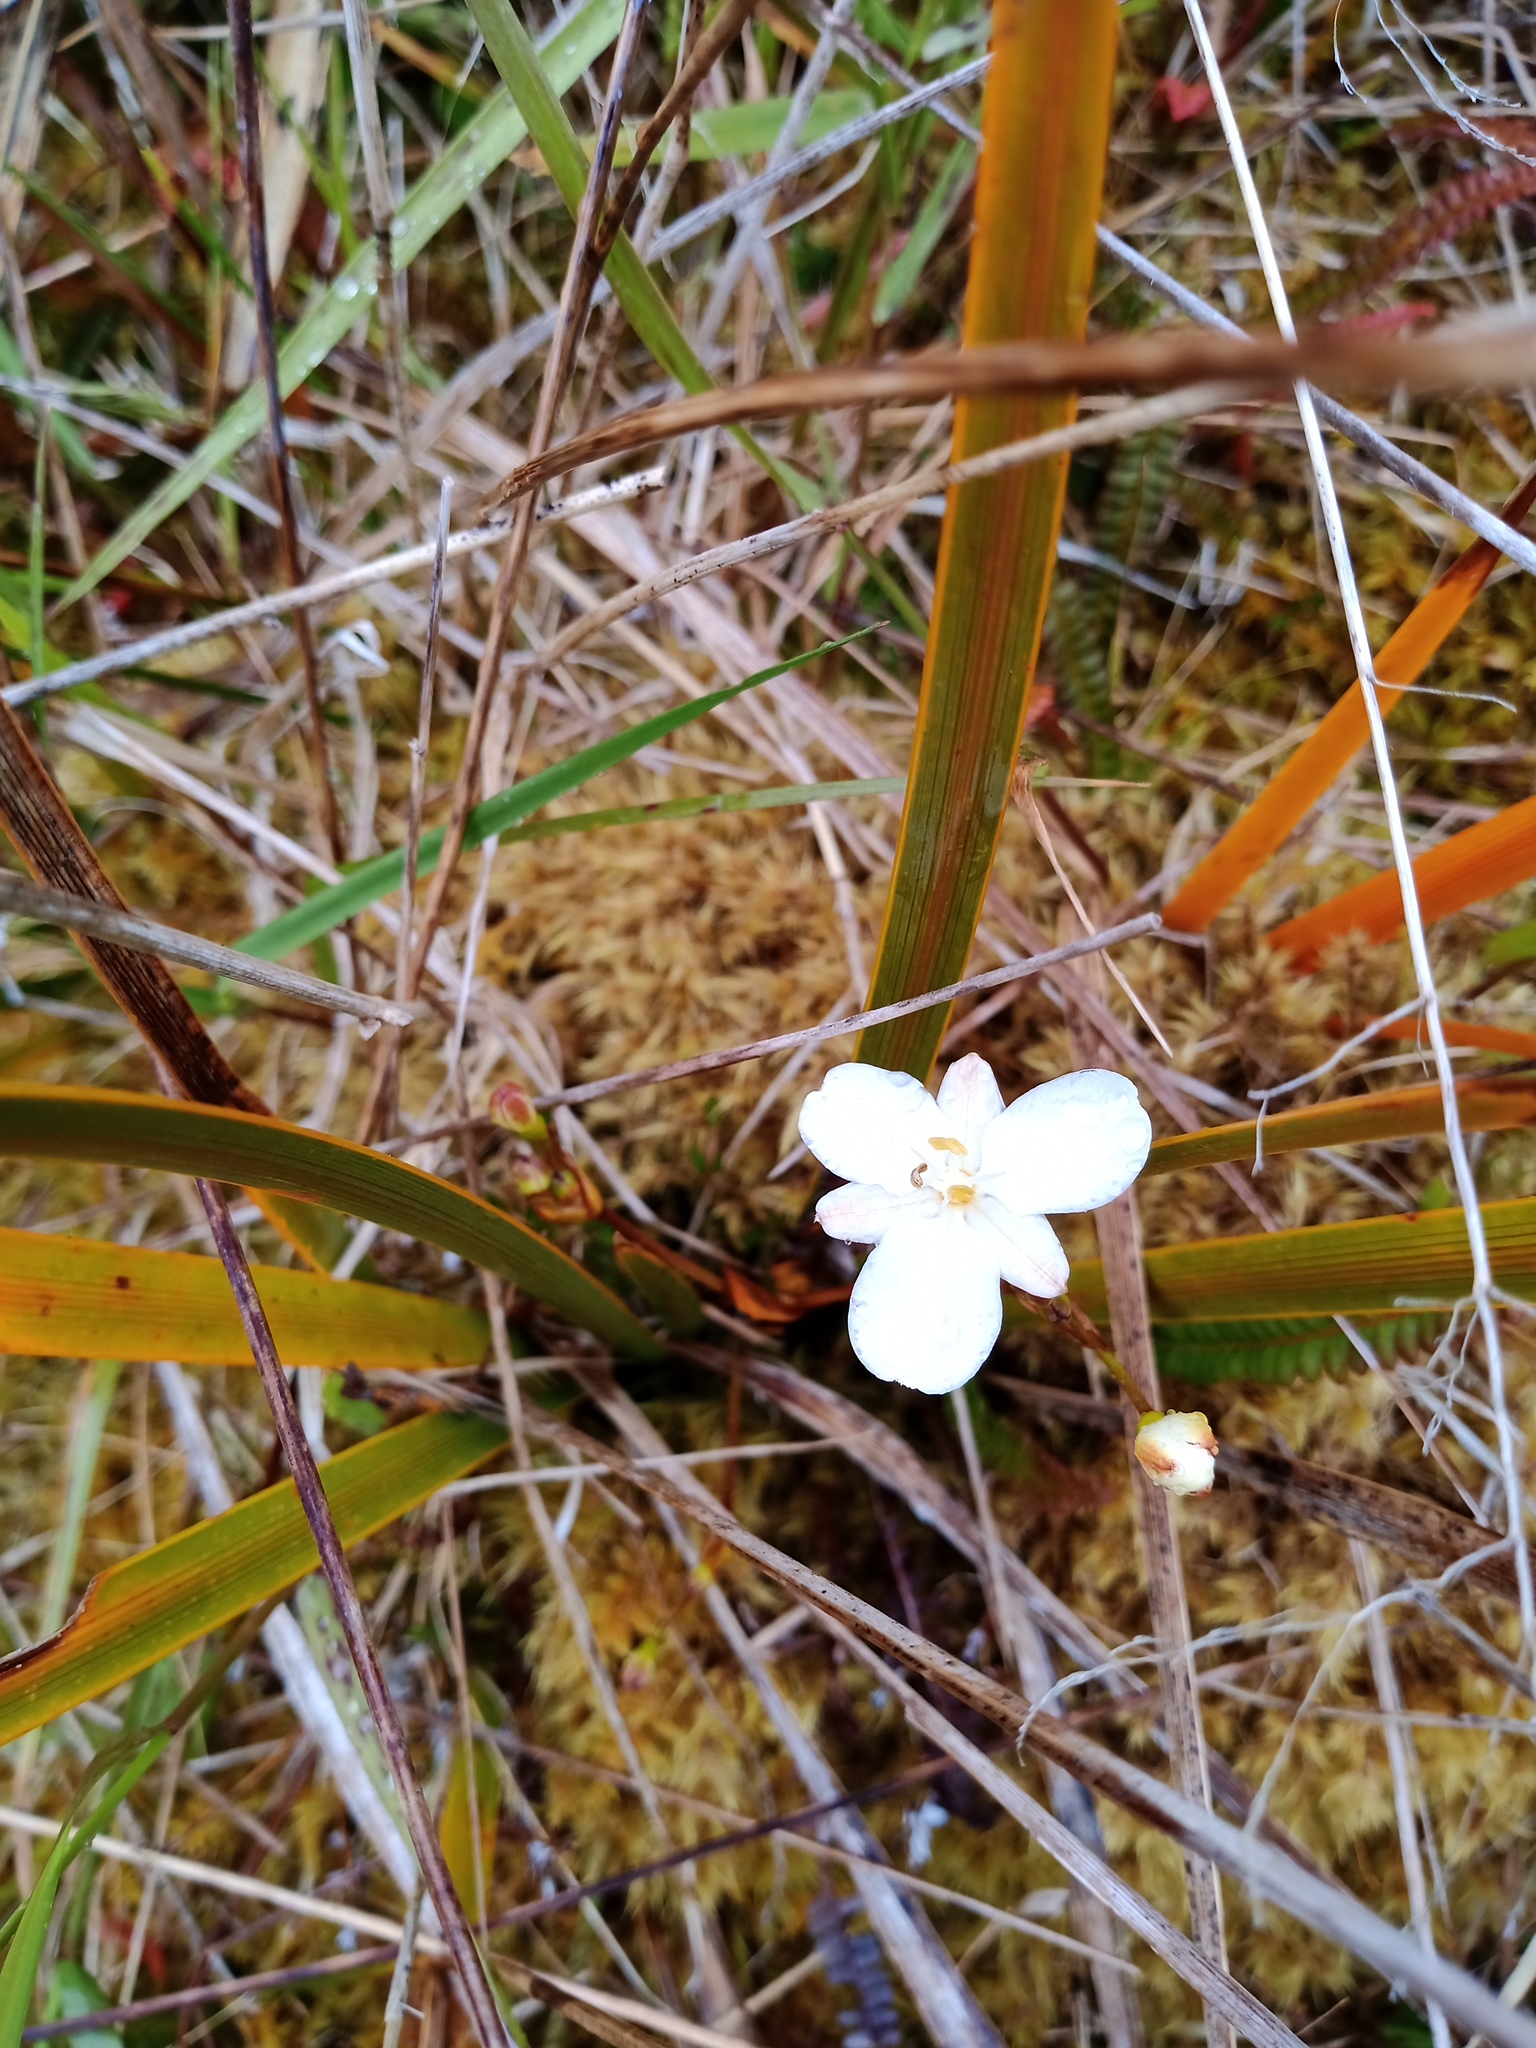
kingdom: Plantae
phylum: Tracheophyta
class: Liliopsida
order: Asparagales
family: Iridaceae
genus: Libertia
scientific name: Libertia peregrinans
